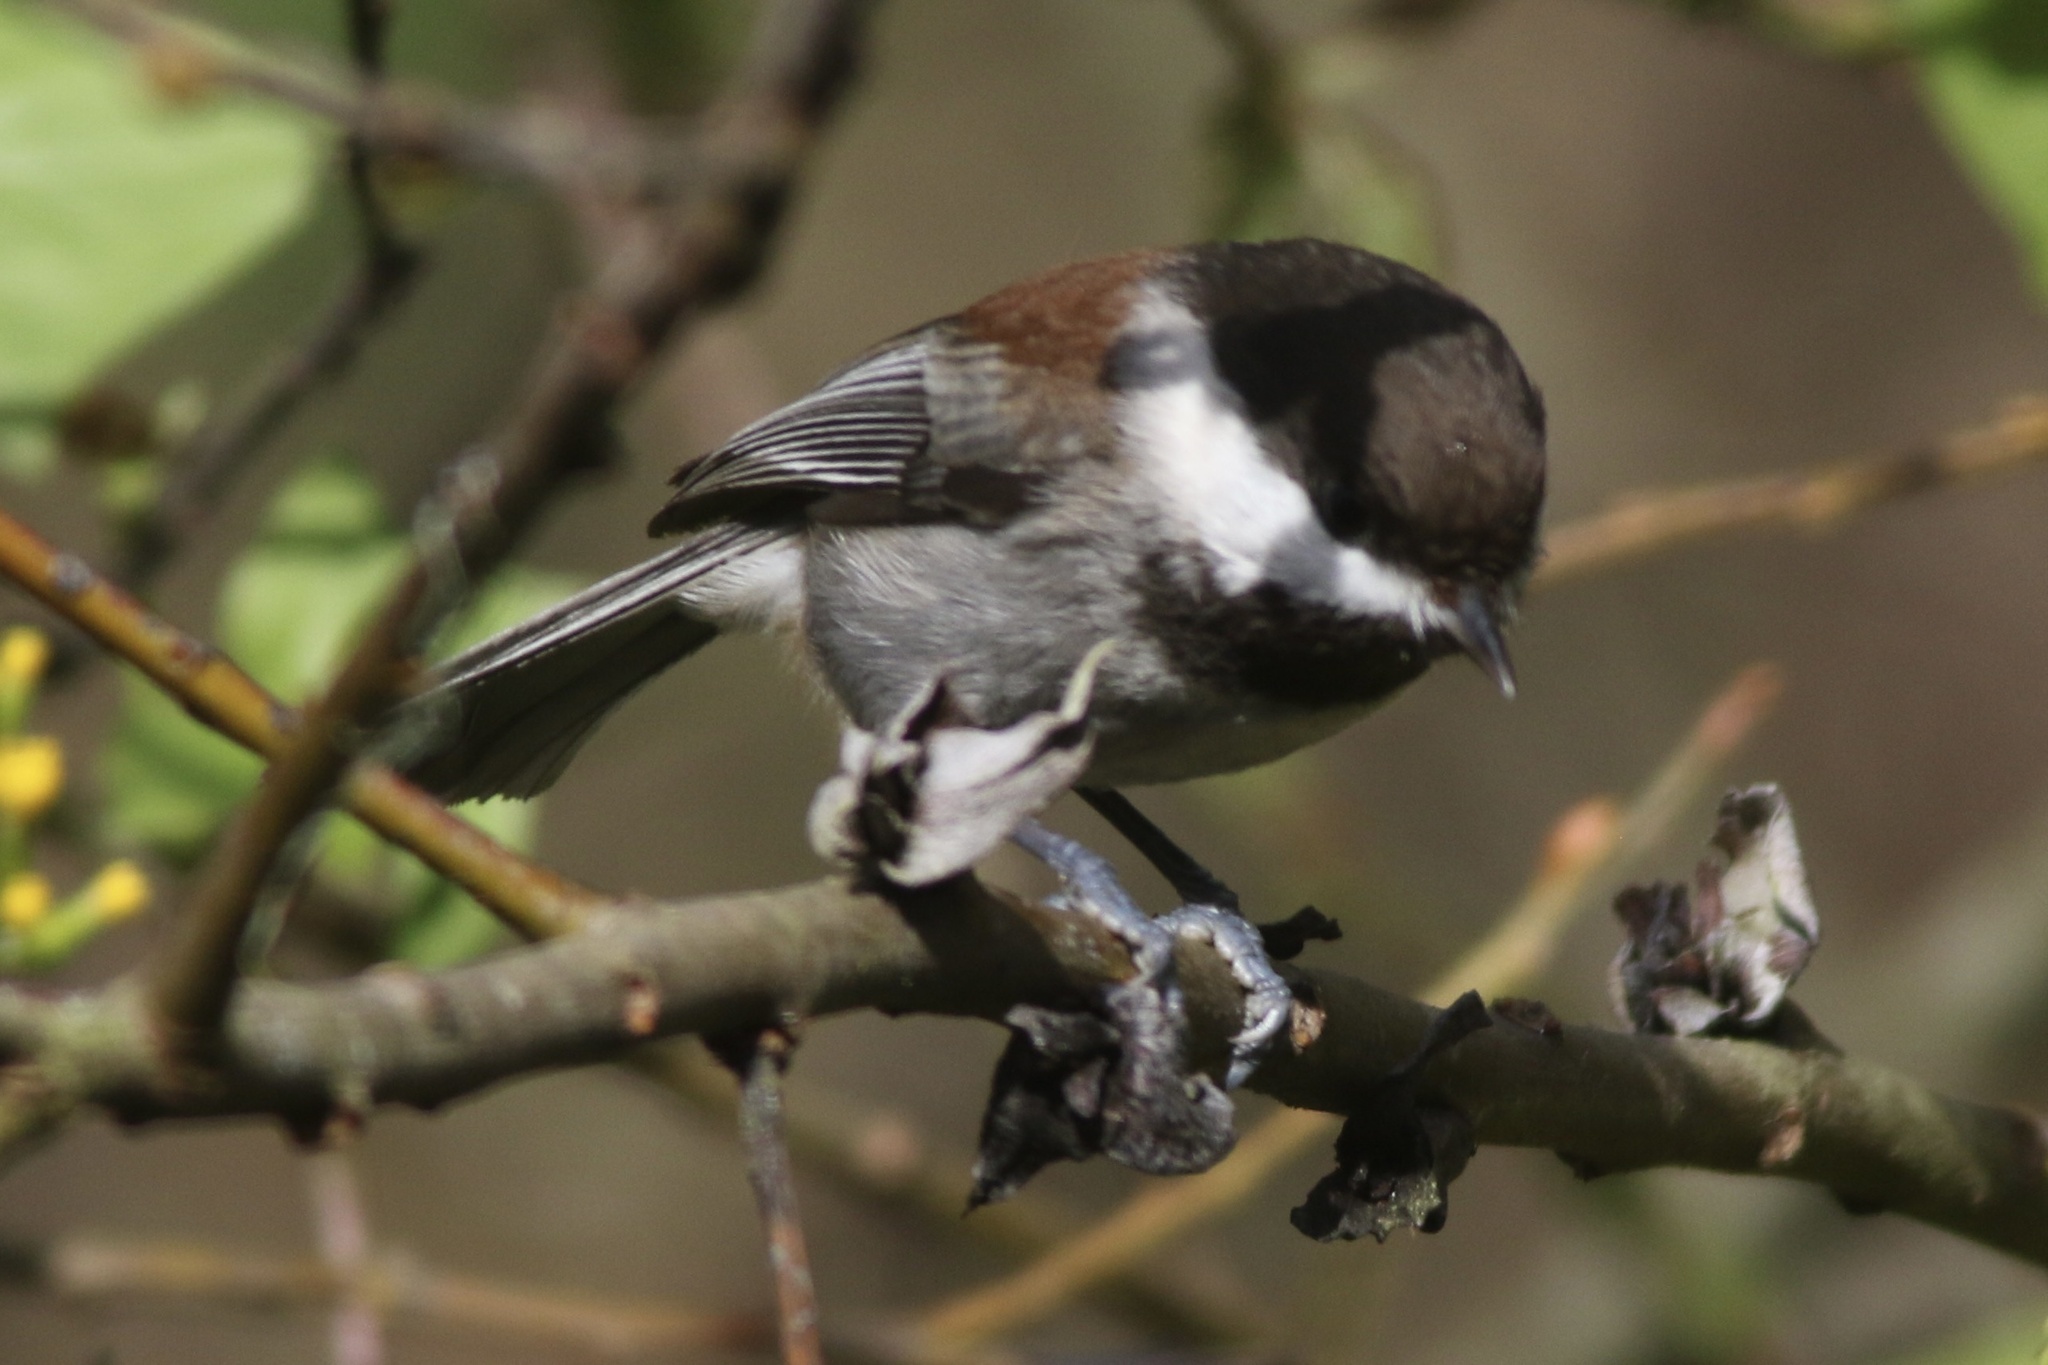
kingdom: Animalia
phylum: Chordata
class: Aves
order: Passeriformes
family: Paridae
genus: Poecile
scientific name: Poecile rufescens
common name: Chestnut-backed chickadee
